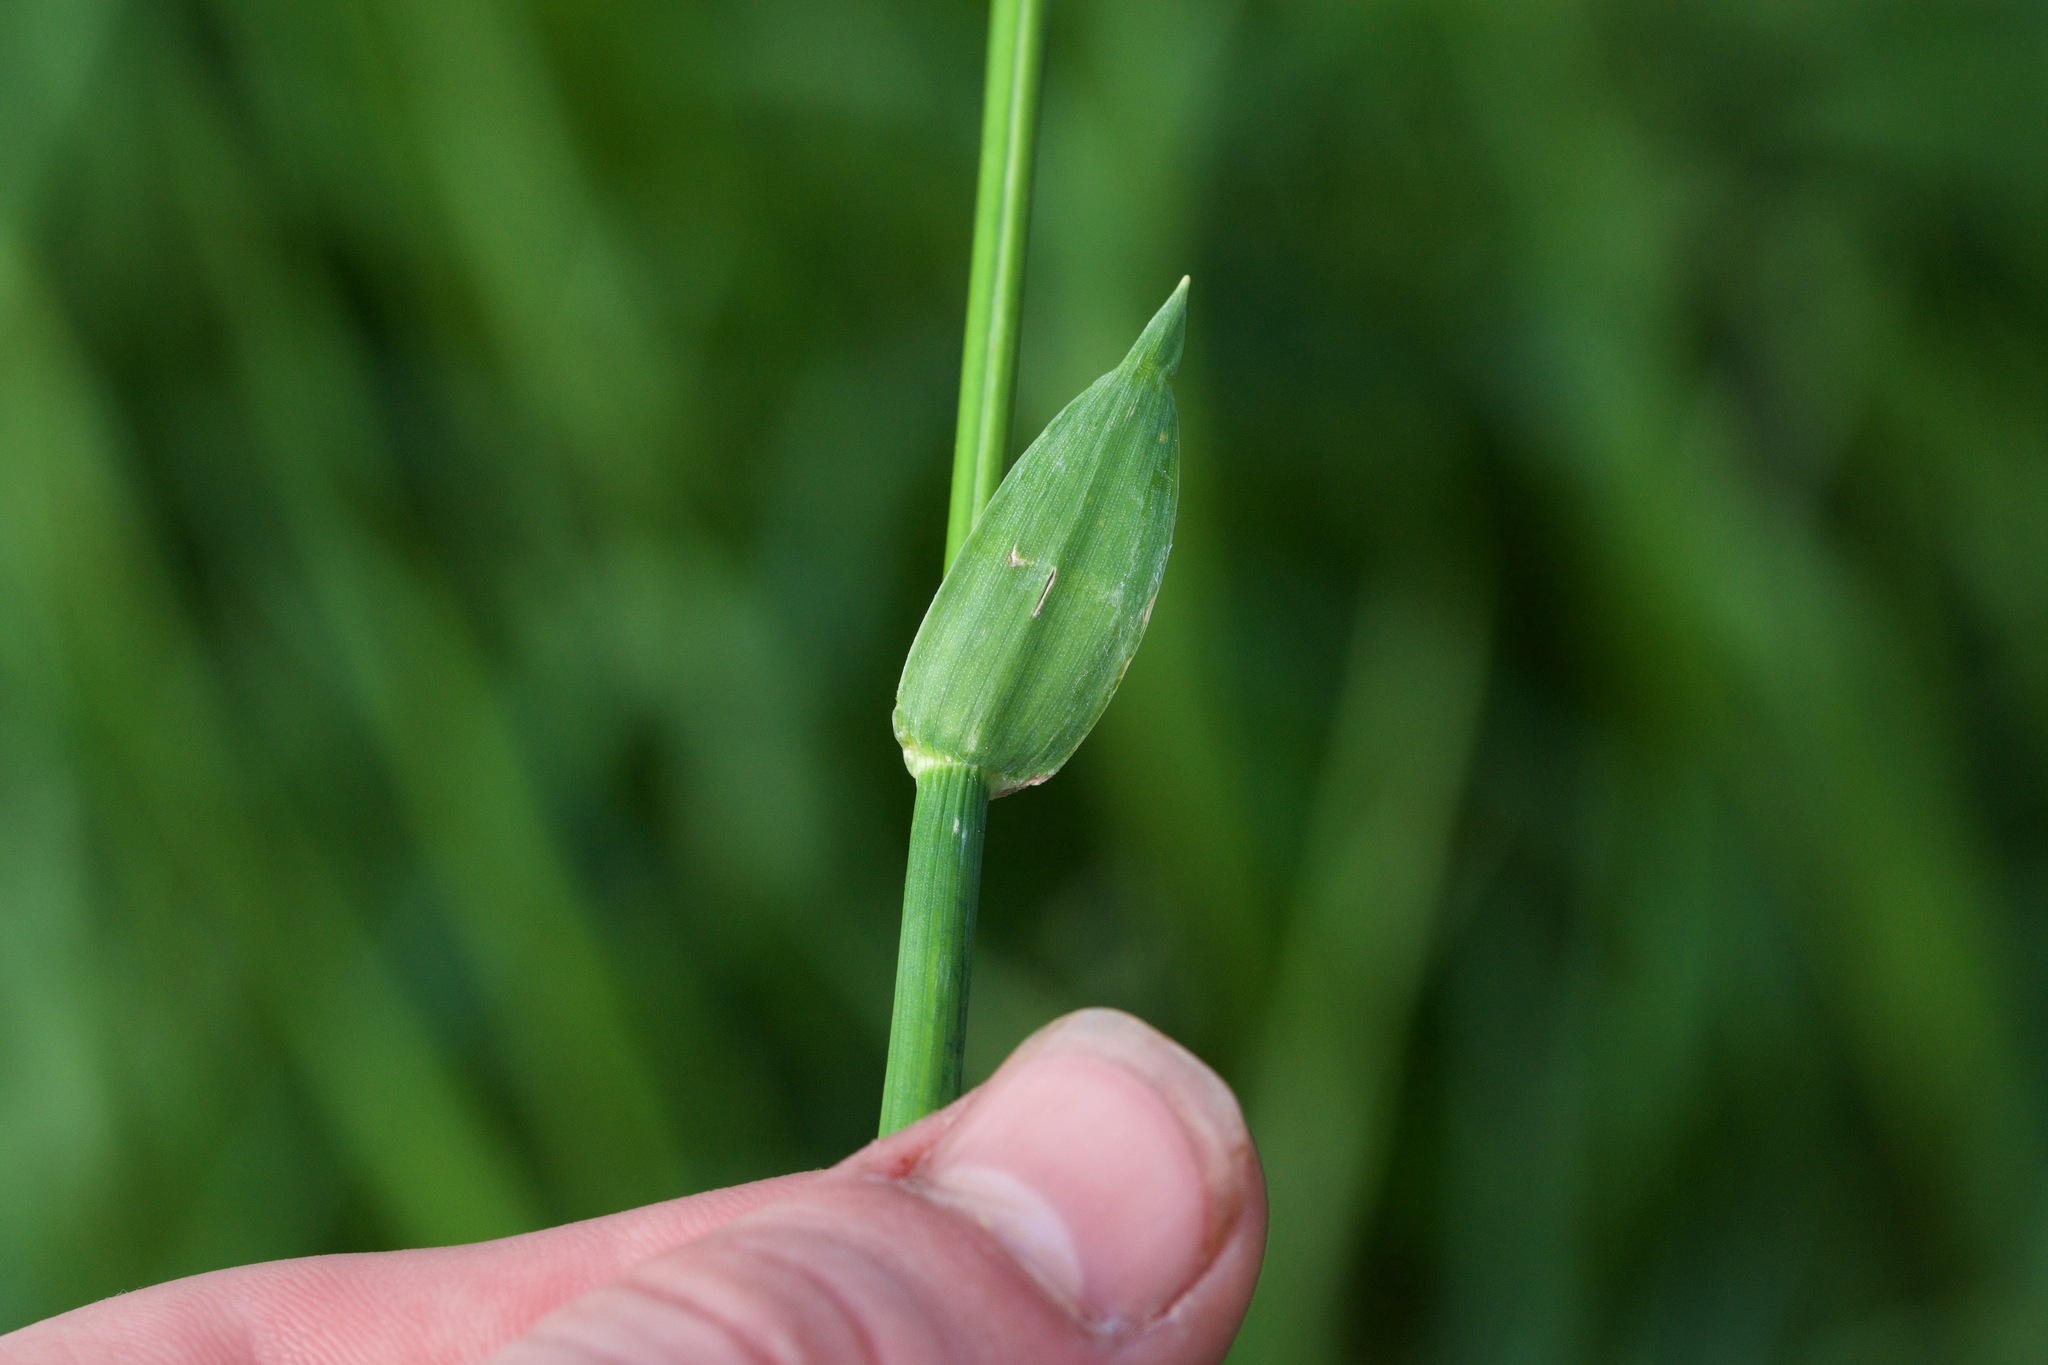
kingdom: Plantae
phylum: Tracheophyta
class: Liliopsida
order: Poales
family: Poaceae
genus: Anthoxanthum
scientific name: Anthoxanthum nitens
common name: Holy grass
